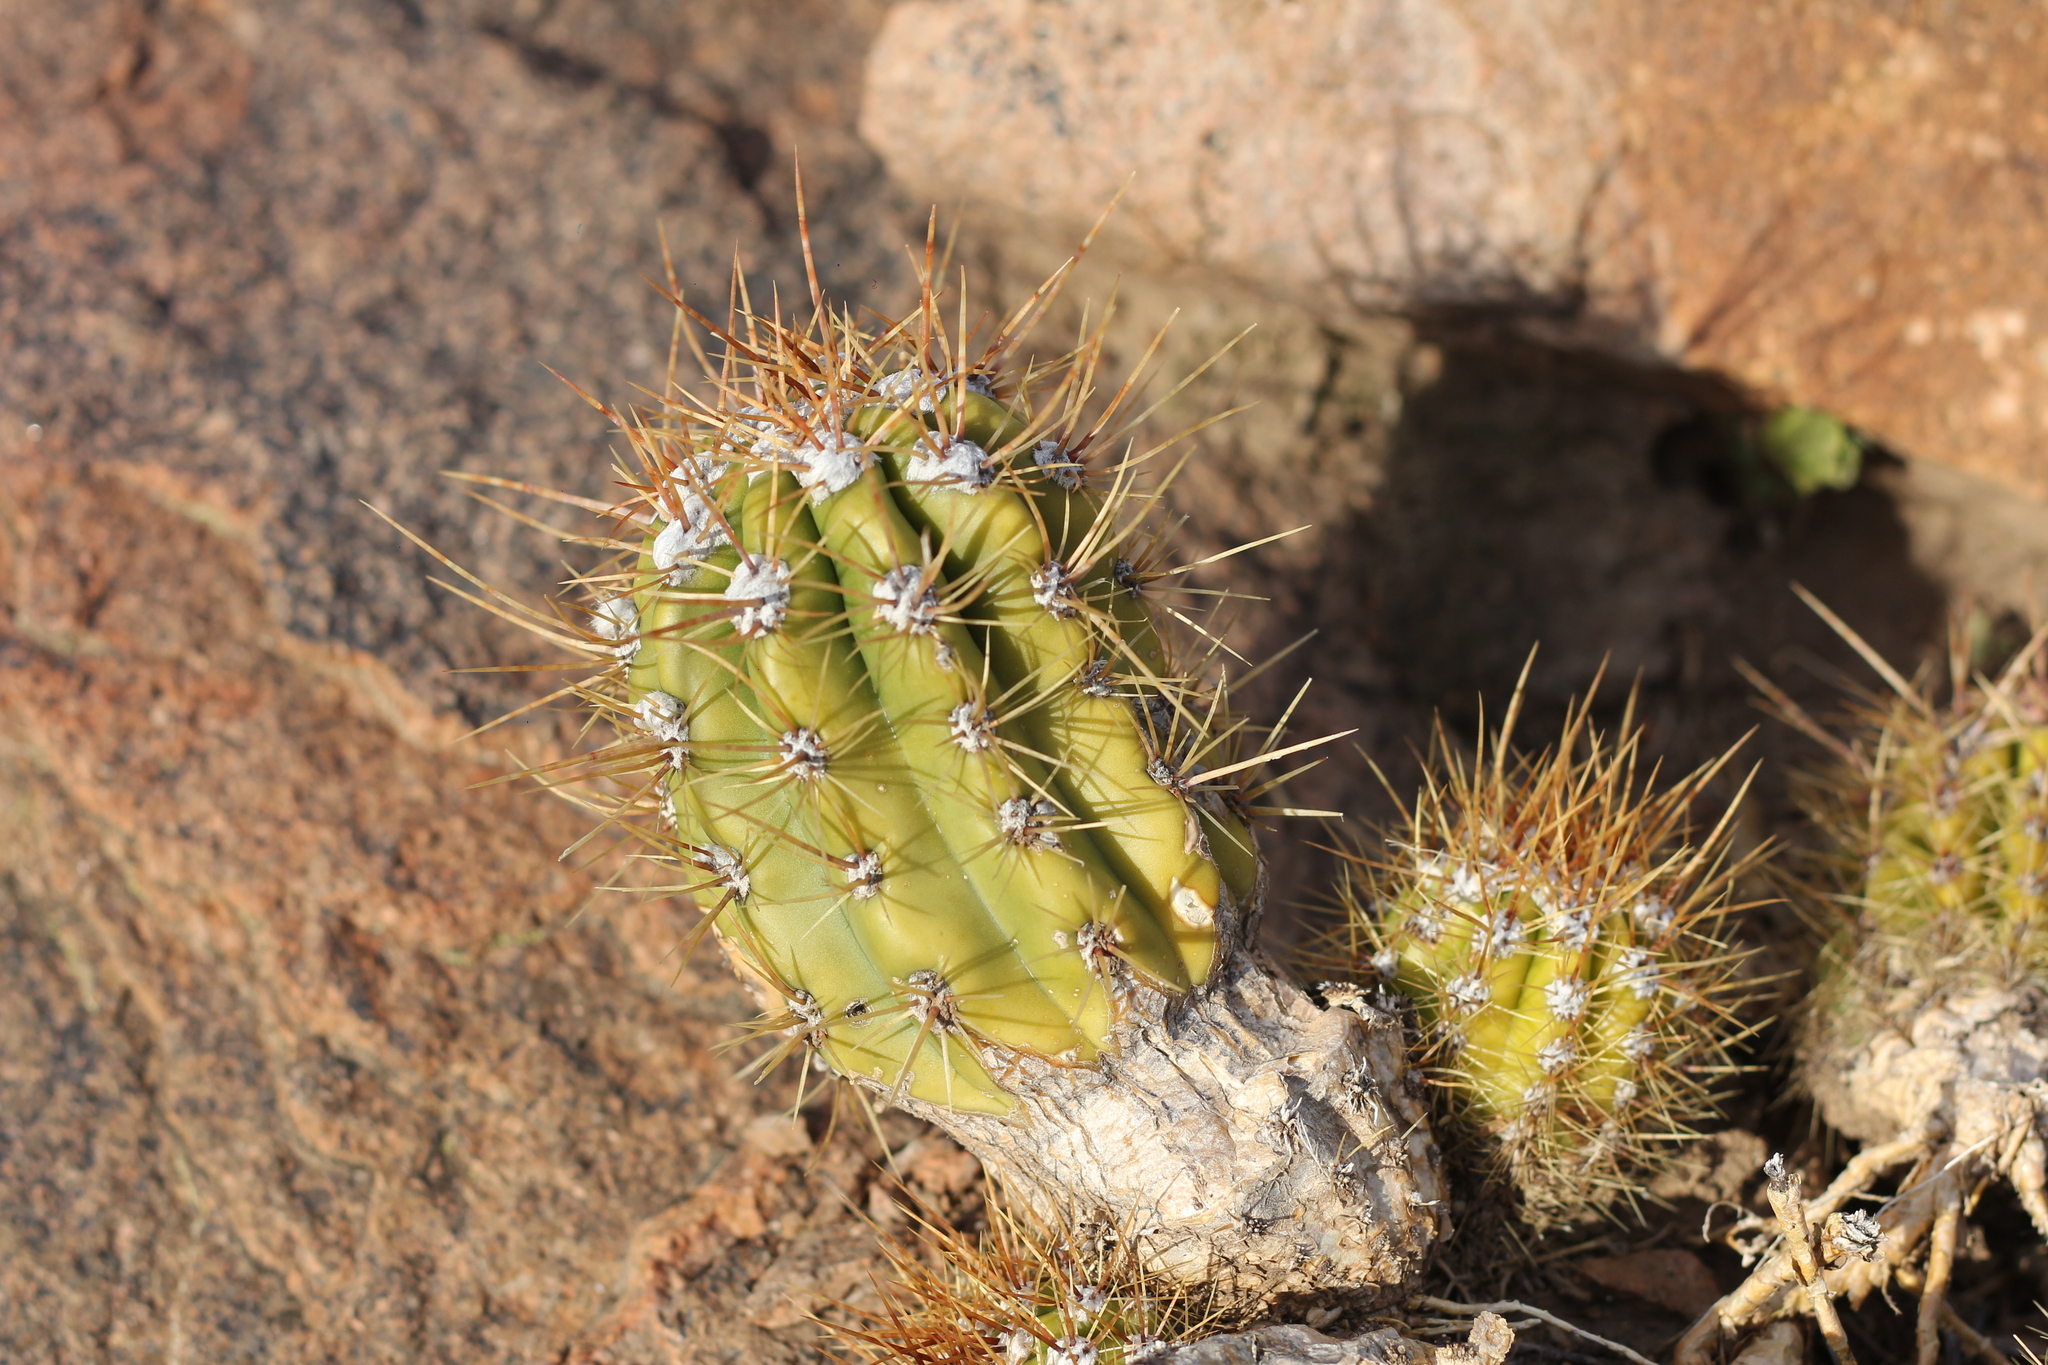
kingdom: Plantae
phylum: Tracheophyta
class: Magnoliopsida
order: Caryophyllales
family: Cactaceae
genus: Soehrensia
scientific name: Soehrensia candicans
